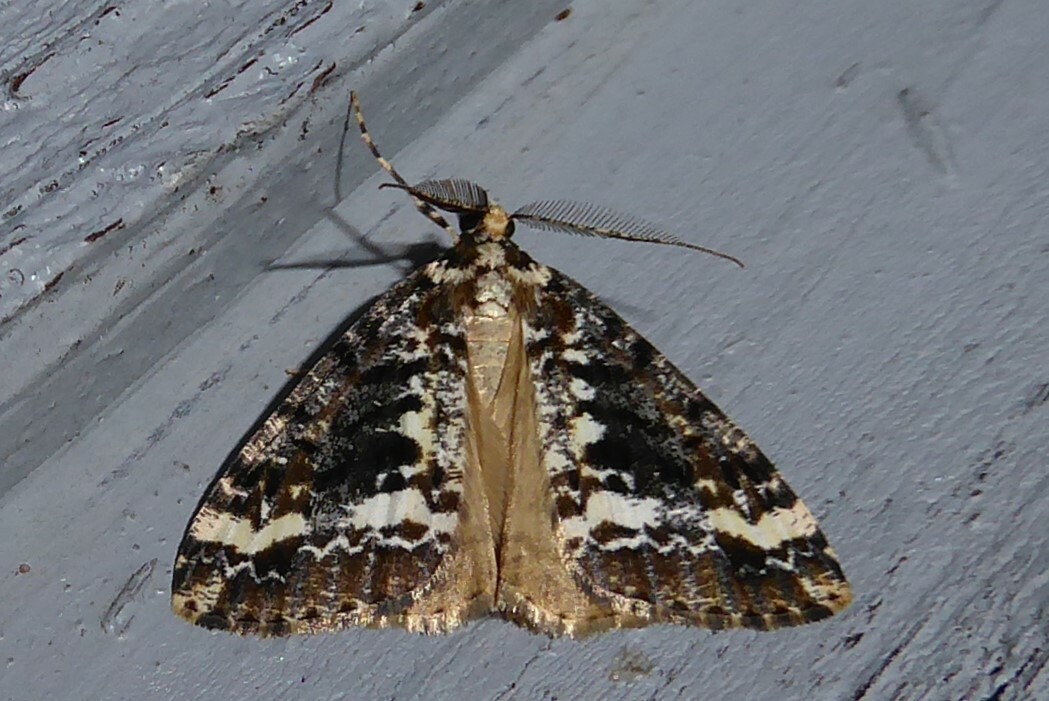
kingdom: Animalia
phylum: Arthropoda
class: Insecta
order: Lepidoptera
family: Geometridae
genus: Pseudocoremia
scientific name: Pseudocoremia leucelaea
